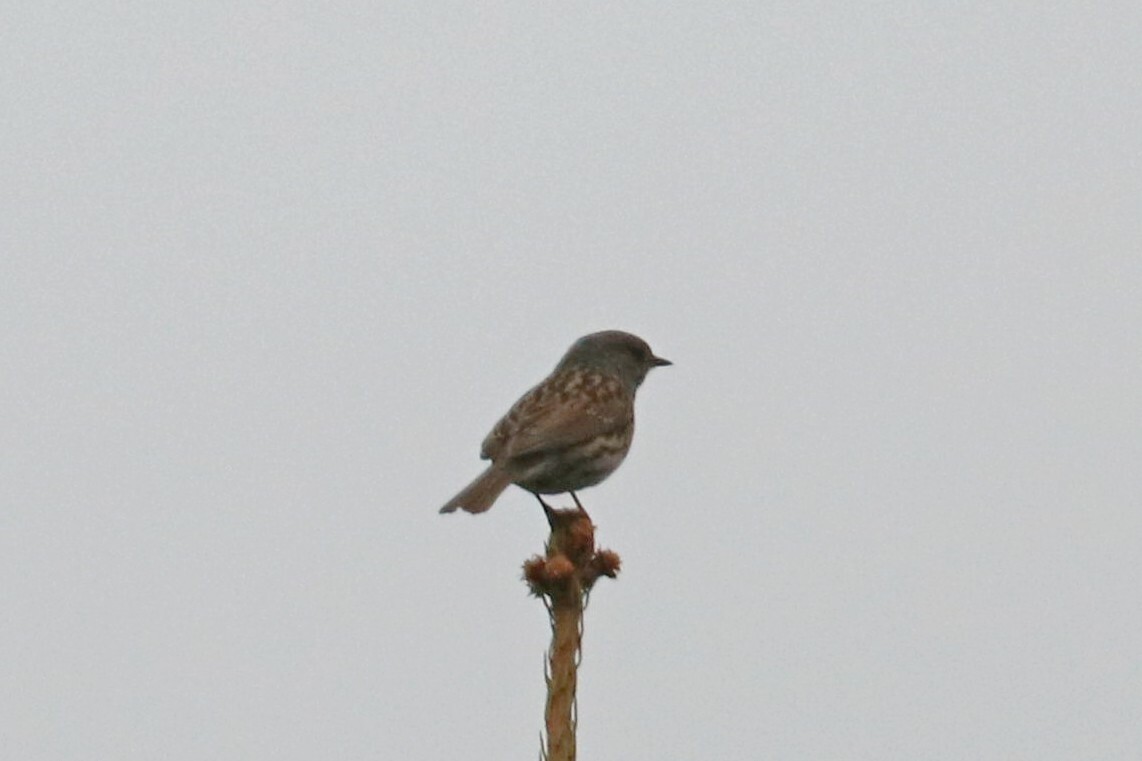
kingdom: Animalia
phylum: Chordata
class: Aves
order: Passeriformes
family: Prunellidae
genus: Prunella
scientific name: Prunella modularis
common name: Dunnock
